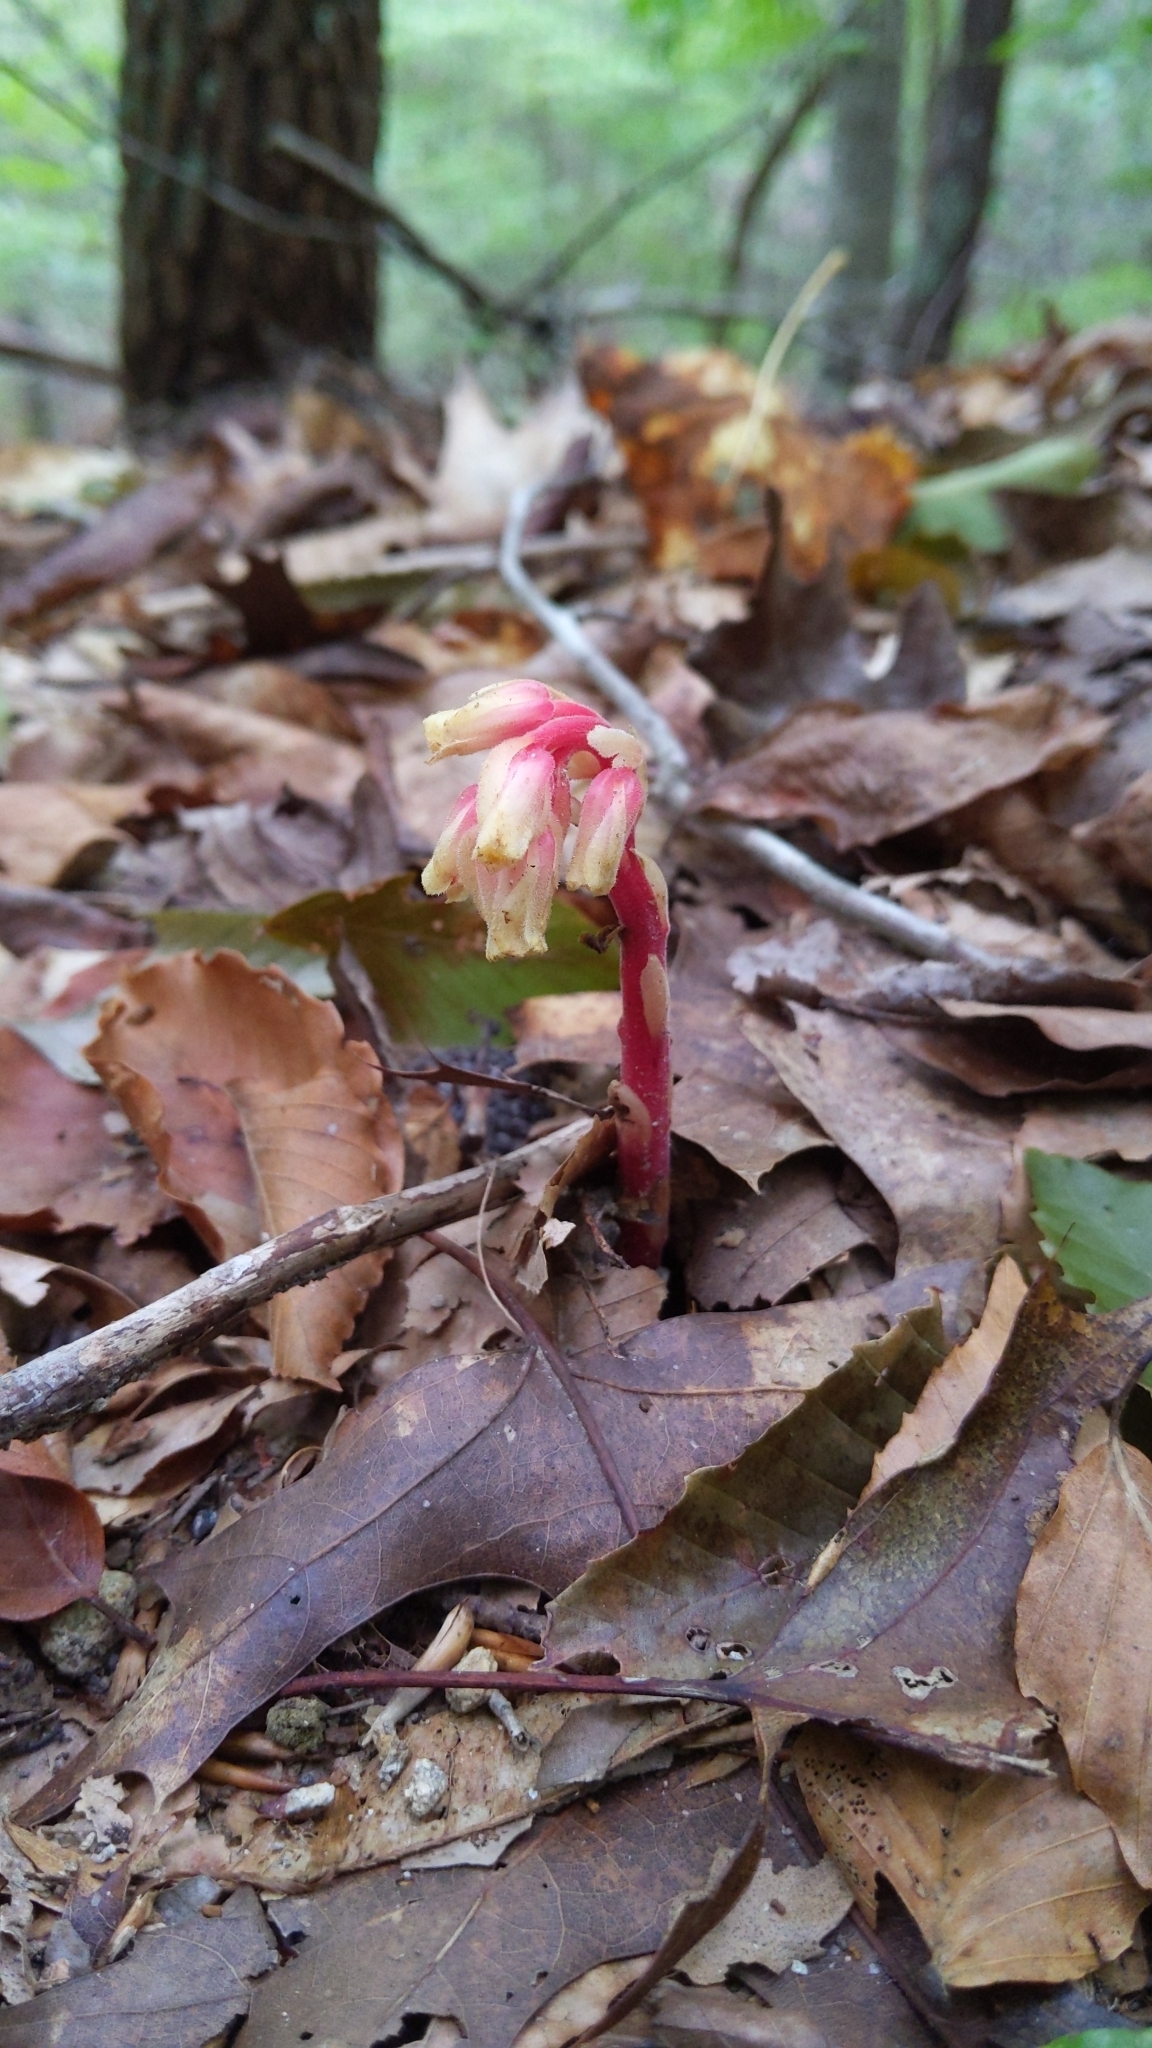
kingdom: Plantae
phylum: Tracheophyta
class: Magnoliopsida
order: Ericales
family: Ericaceae
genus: Hypopitys
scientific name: Hypopitys monotropa
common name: Yellow bird's-nest
